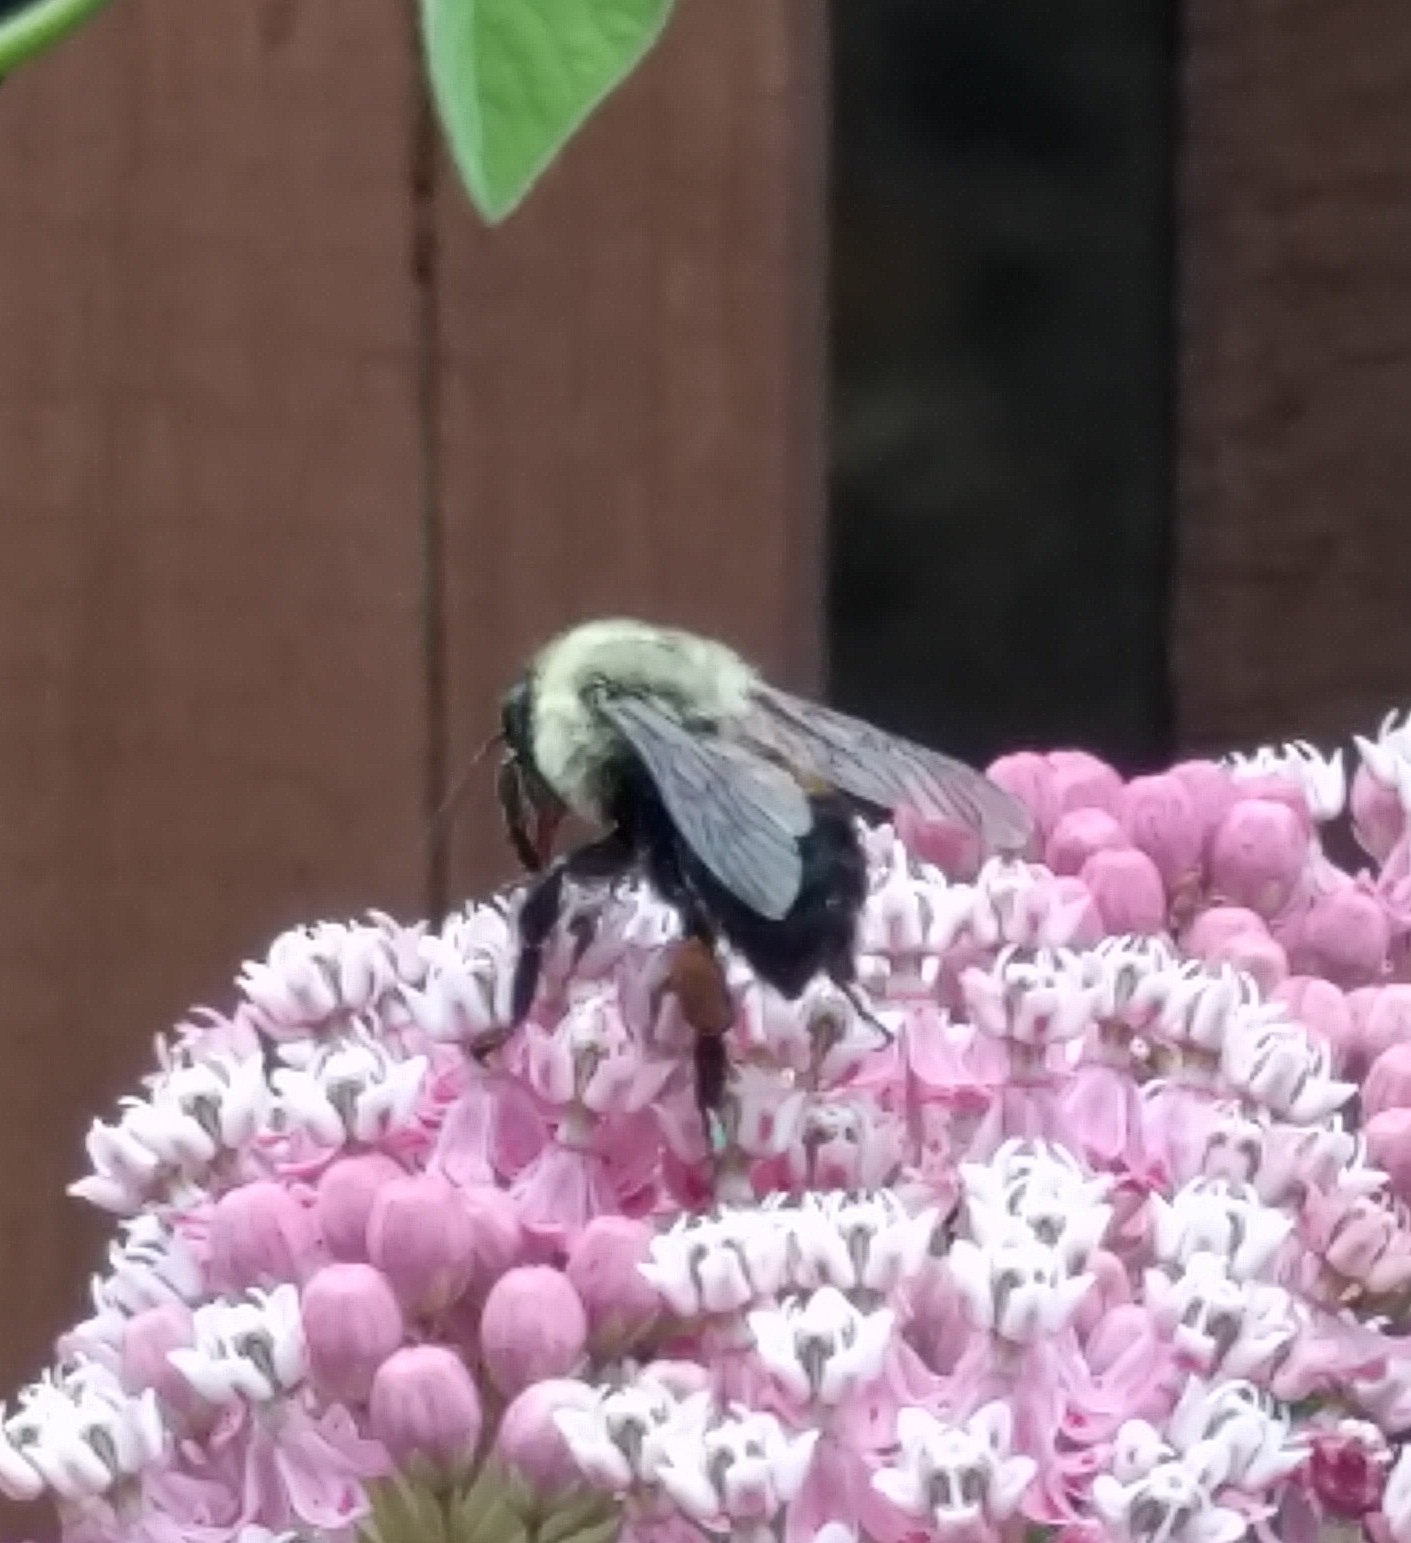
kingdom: Animalia
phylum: Arthropoda
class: Insecta
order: Hymenoptera
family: Apidae
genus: Bombus
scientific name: Bombus griseocollis
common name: Brown-belted bumble bee
